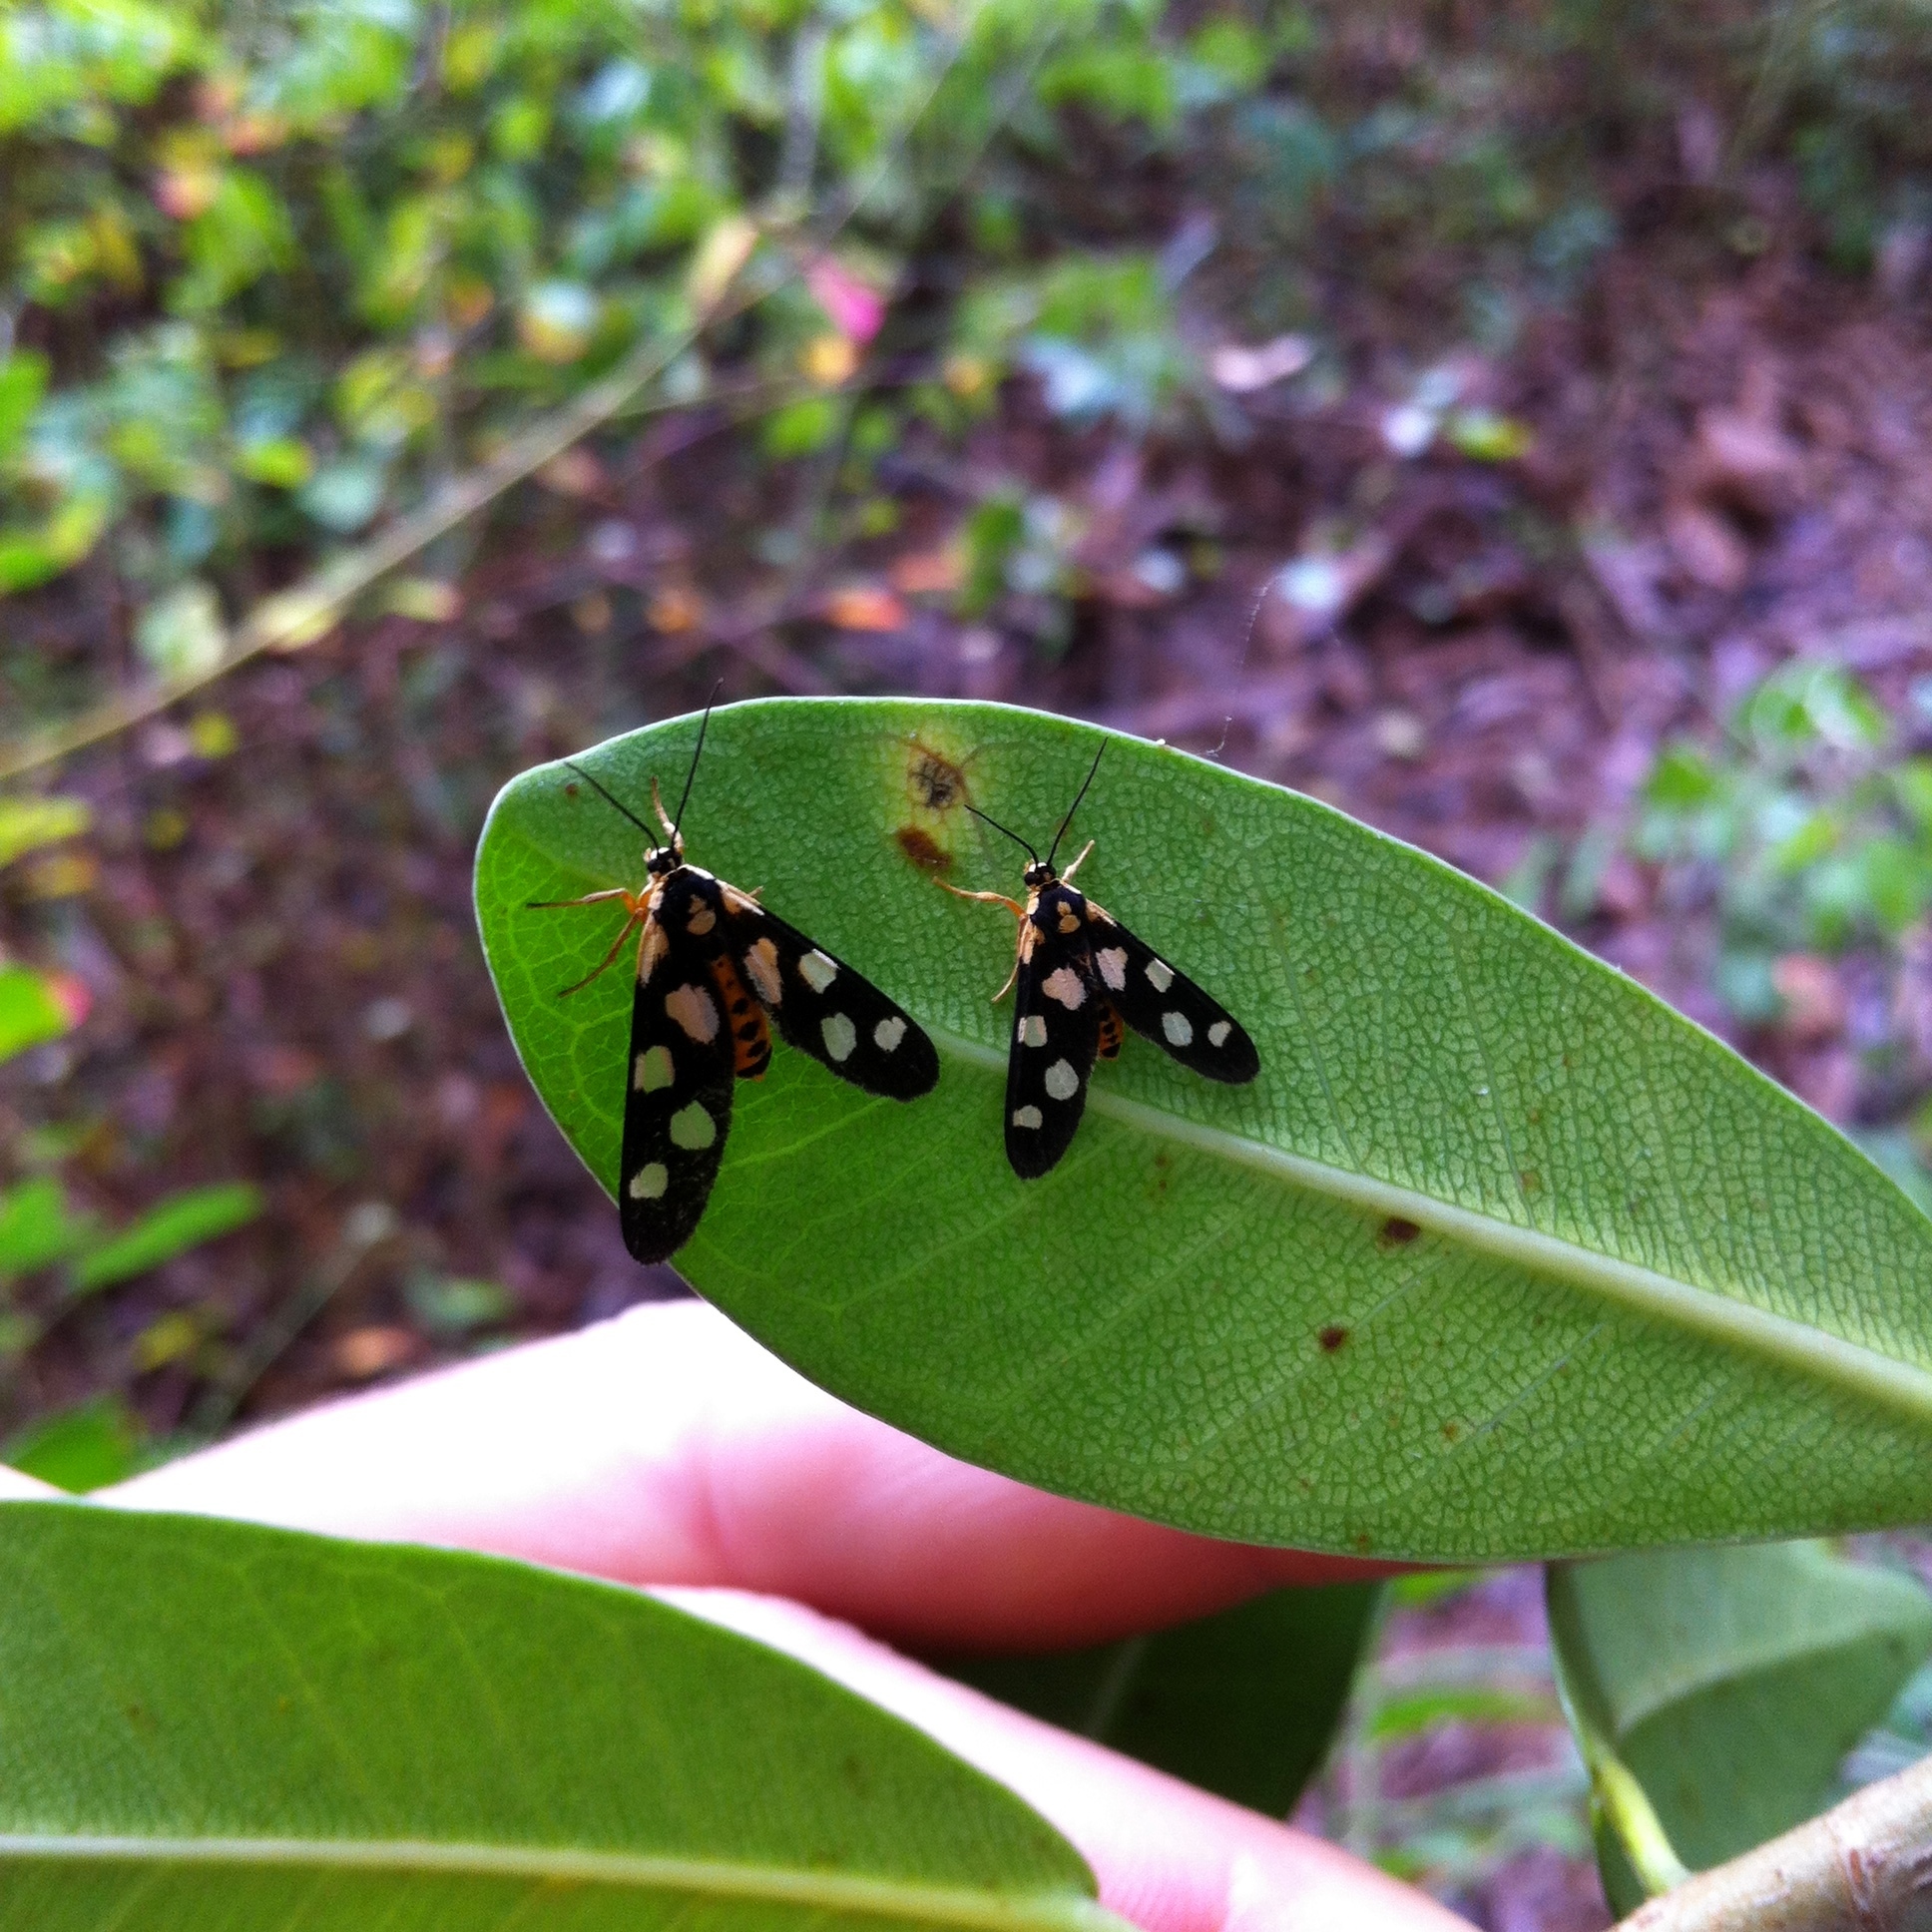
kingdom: Animalia
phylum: Arthropoda
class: Insecta
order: Lepidoptera
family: Erebidae
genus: Thyrosticta
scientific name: Thyrosticta minuta
